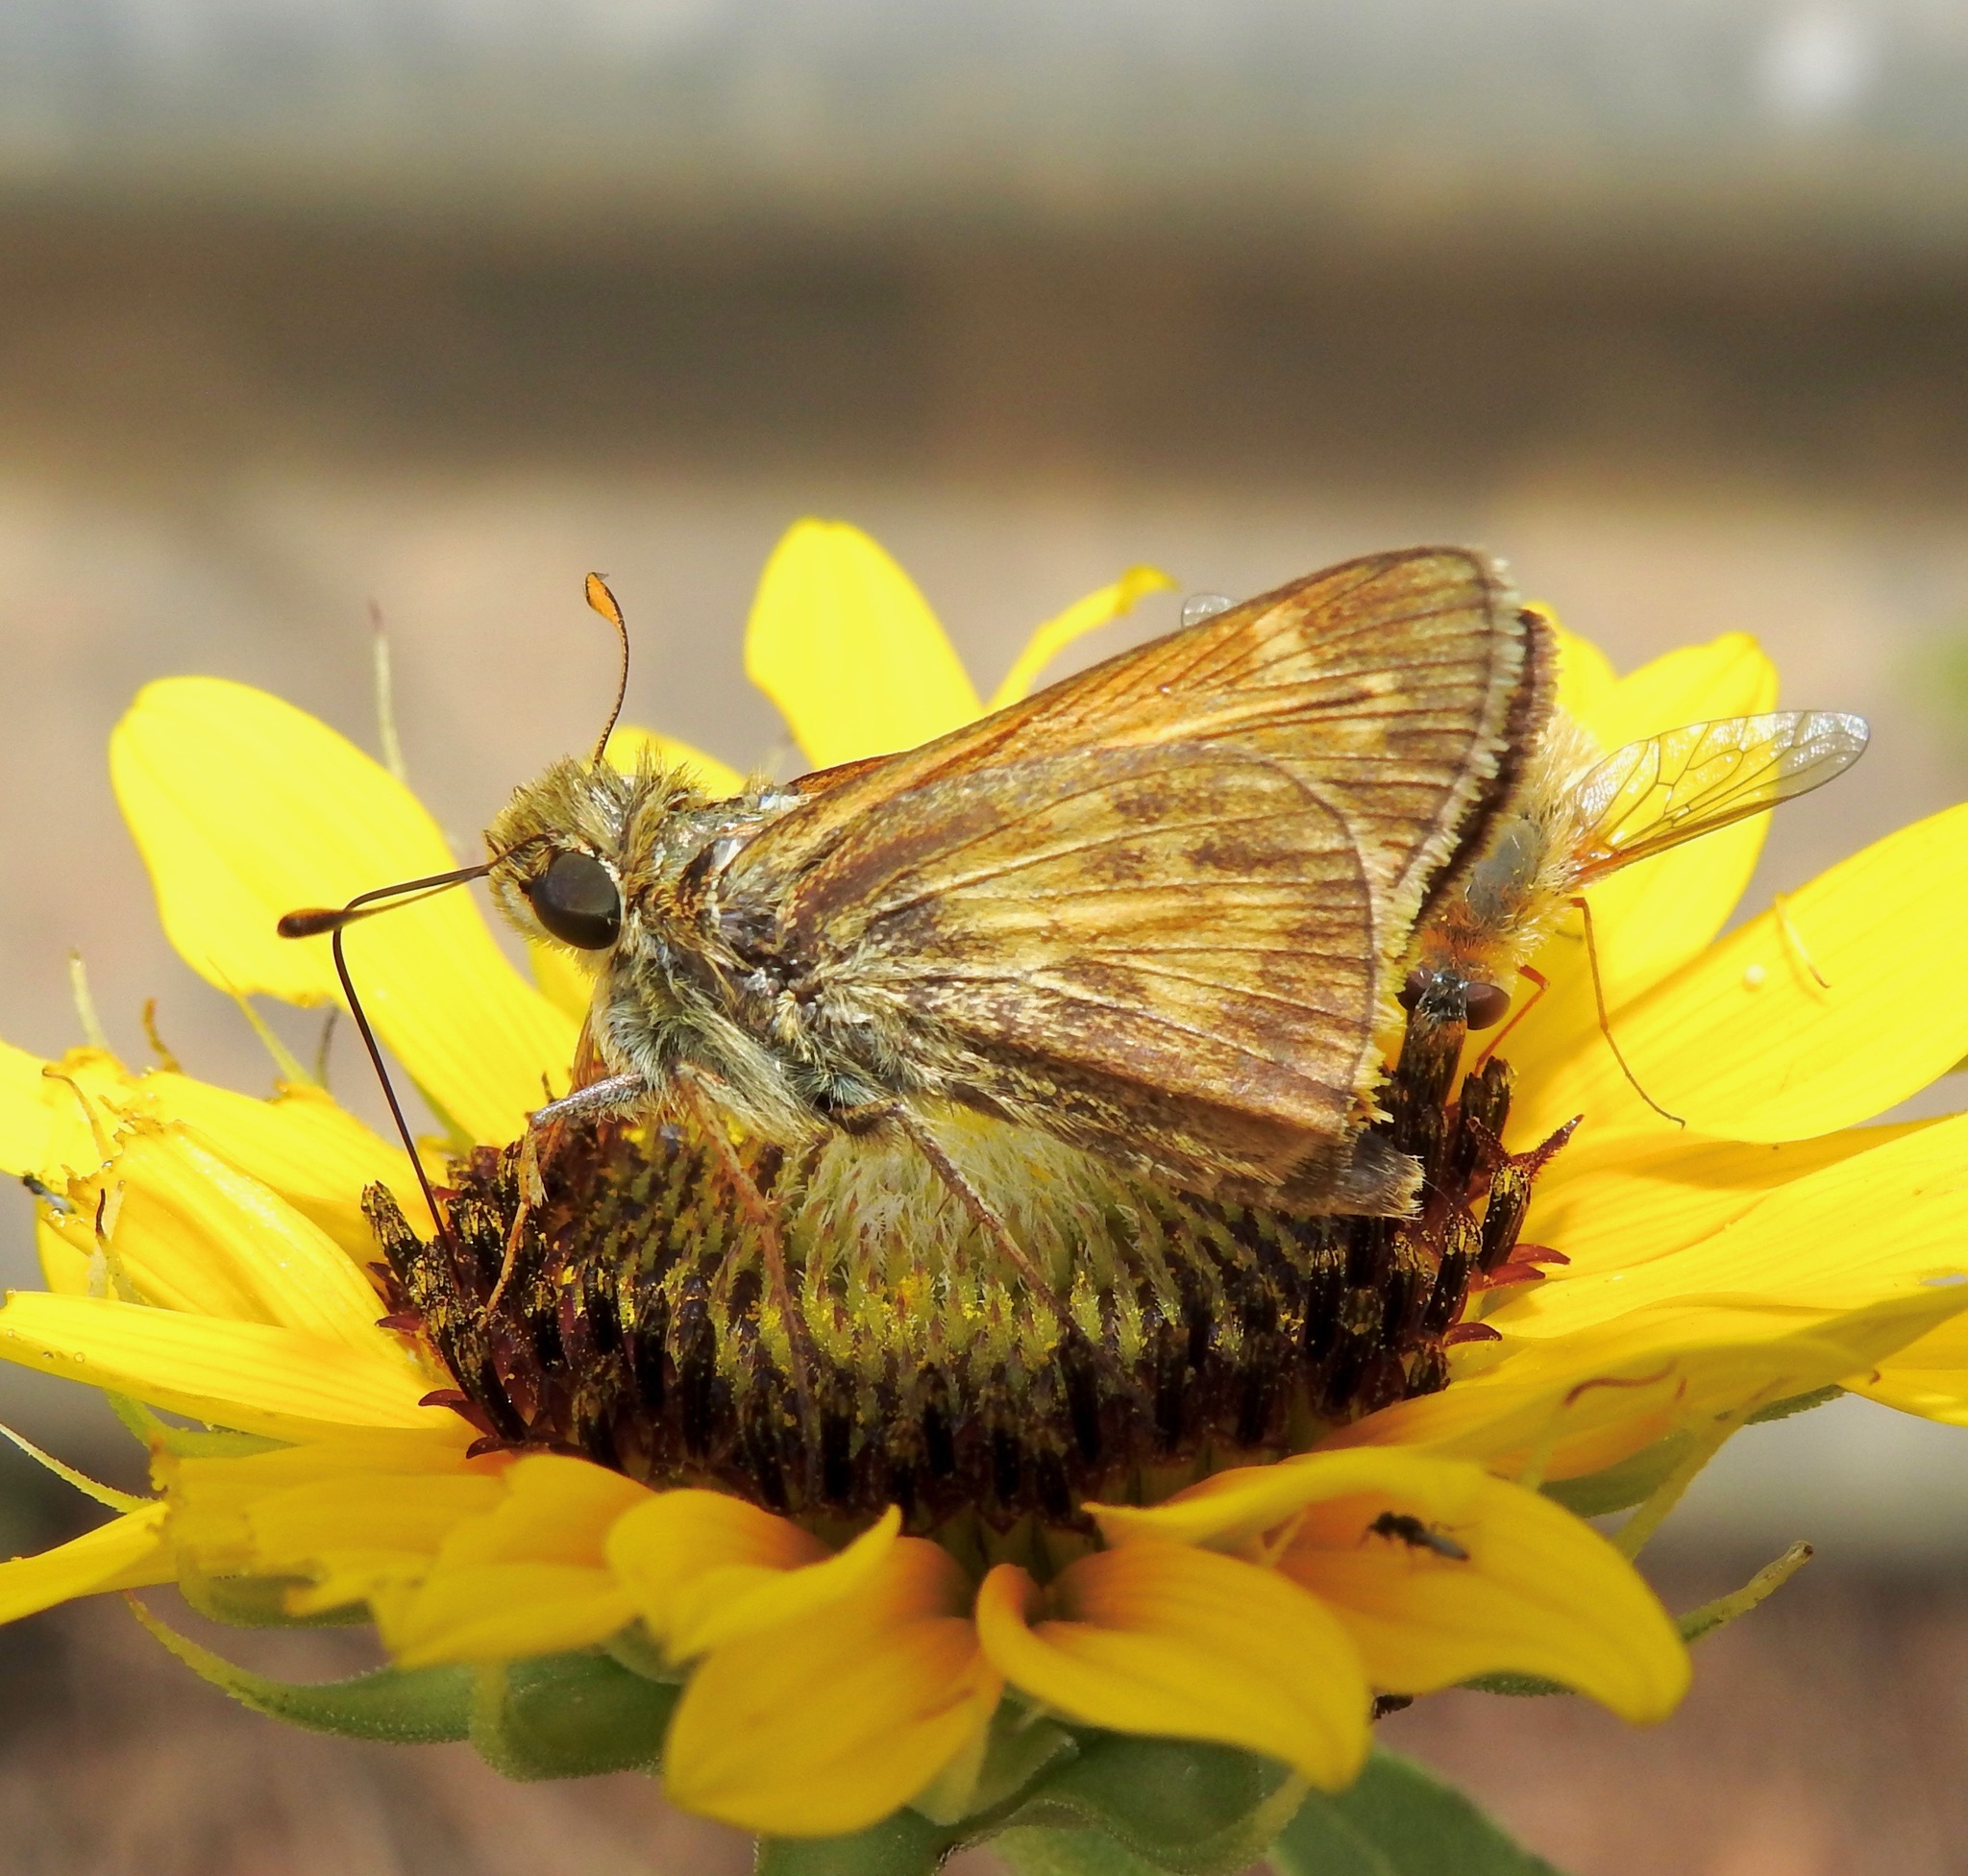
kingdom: Animalia
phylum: Arthropoda
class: Insecta
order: Lepidoptera
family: Hesperiidae
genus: Atalopedes
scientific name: Atalopedes
